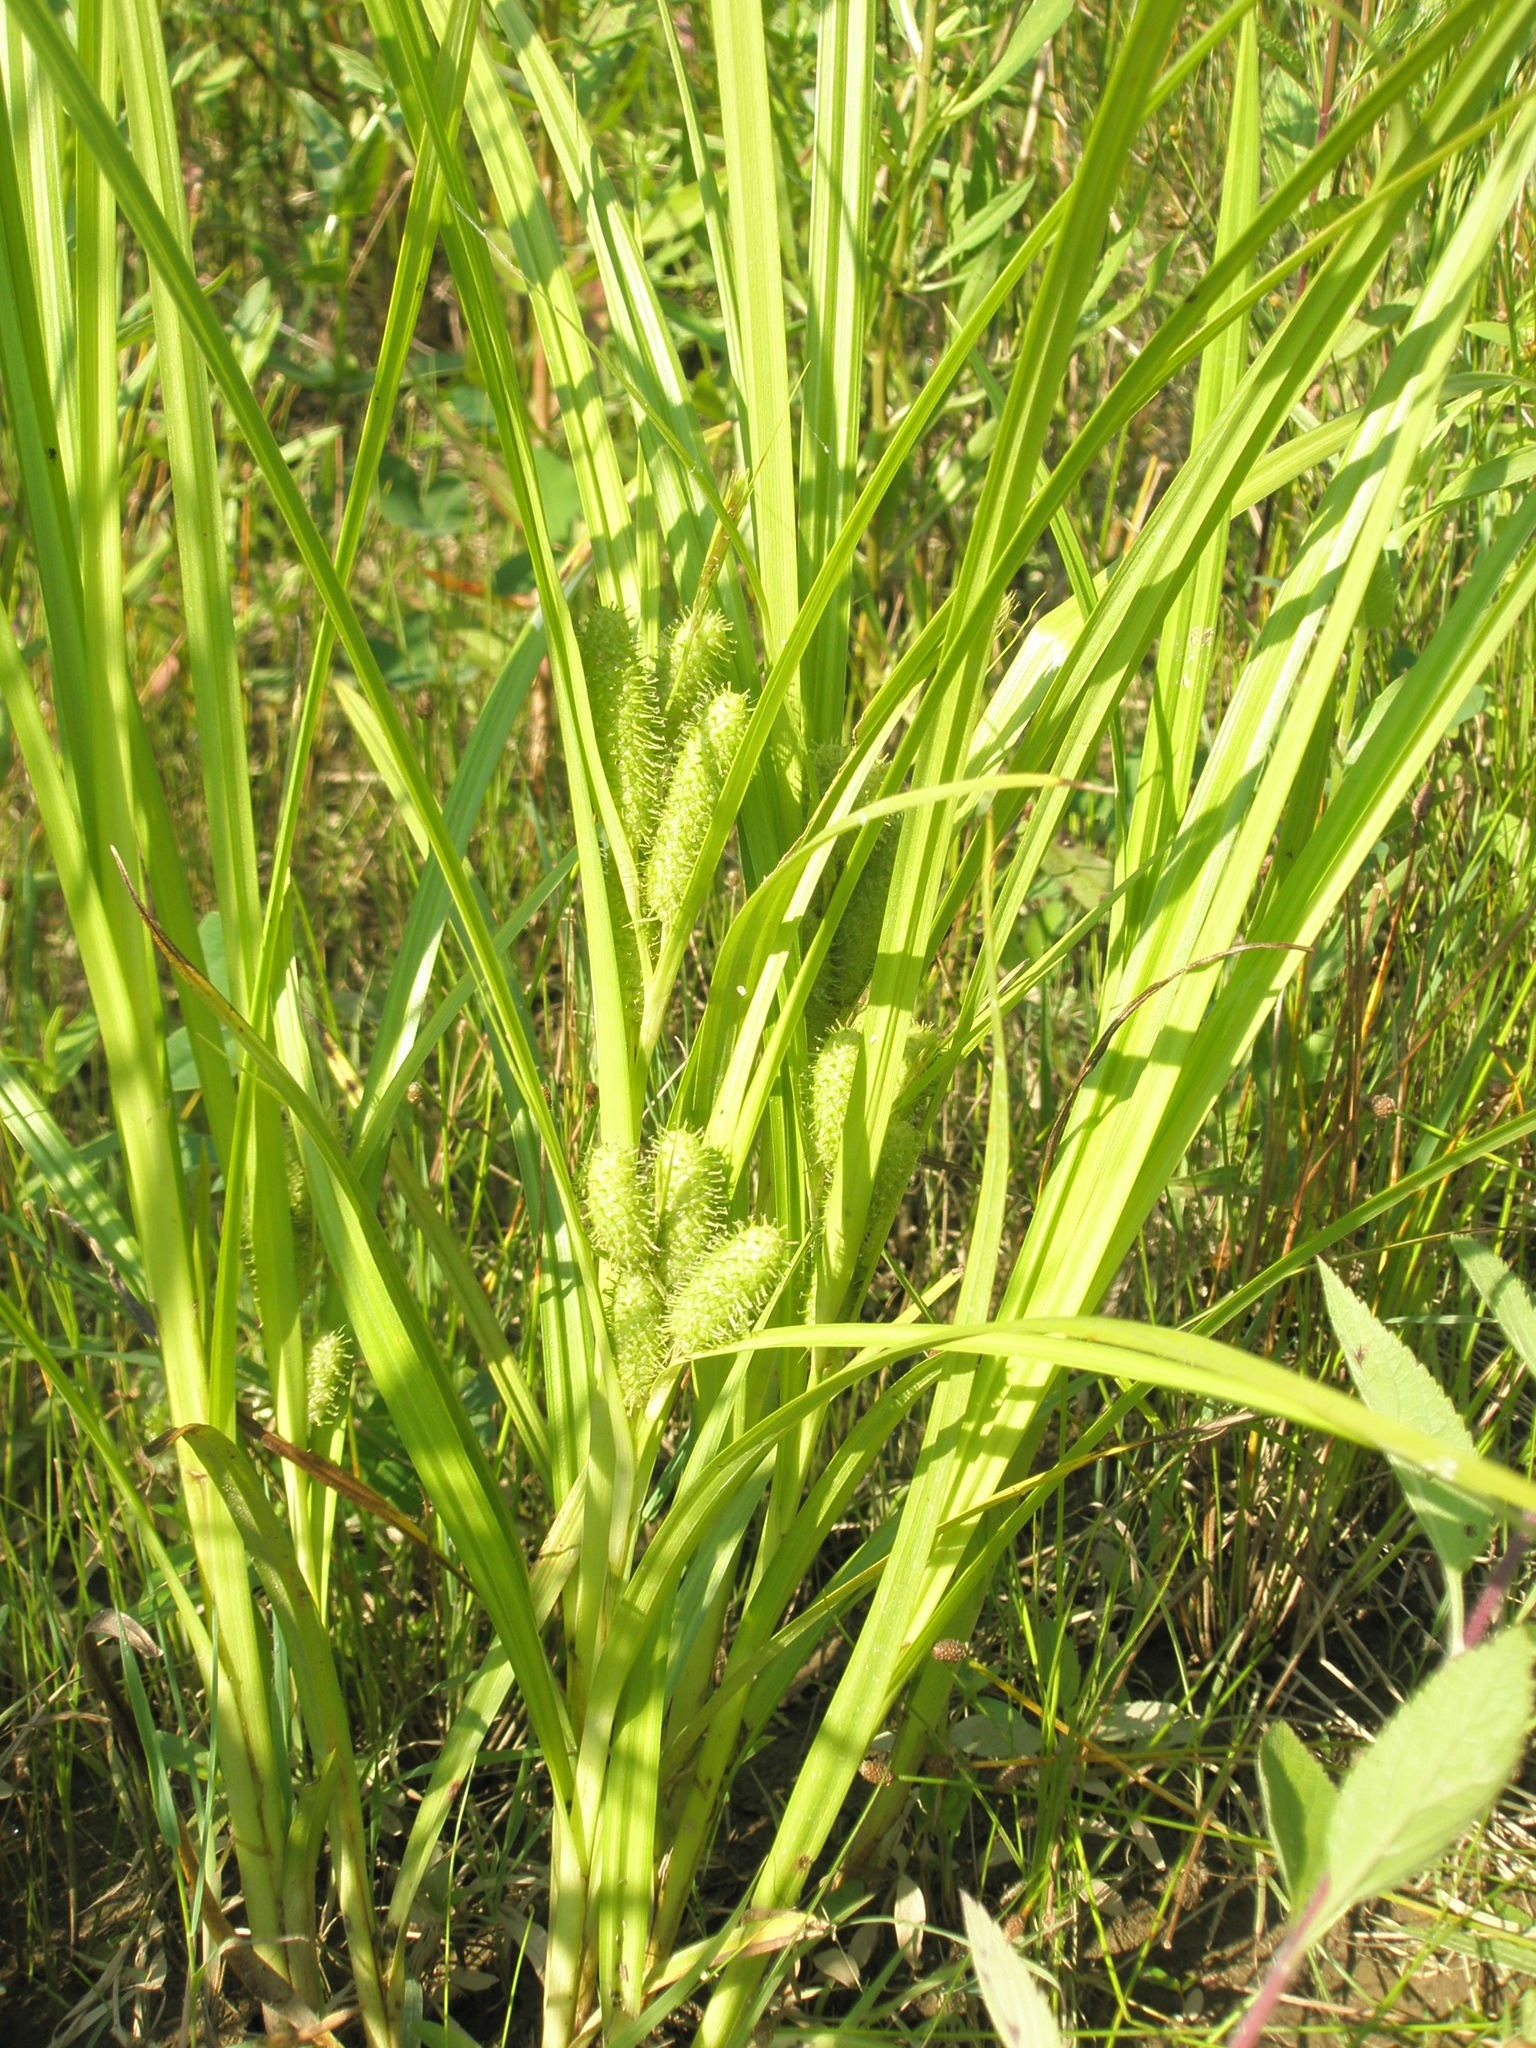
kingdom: Plantae
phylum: Tracheophyta
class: Liliopsida
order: Poales
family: Cyperaceae
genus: Carex
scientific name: Carex frankii
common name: Frank's sedge
